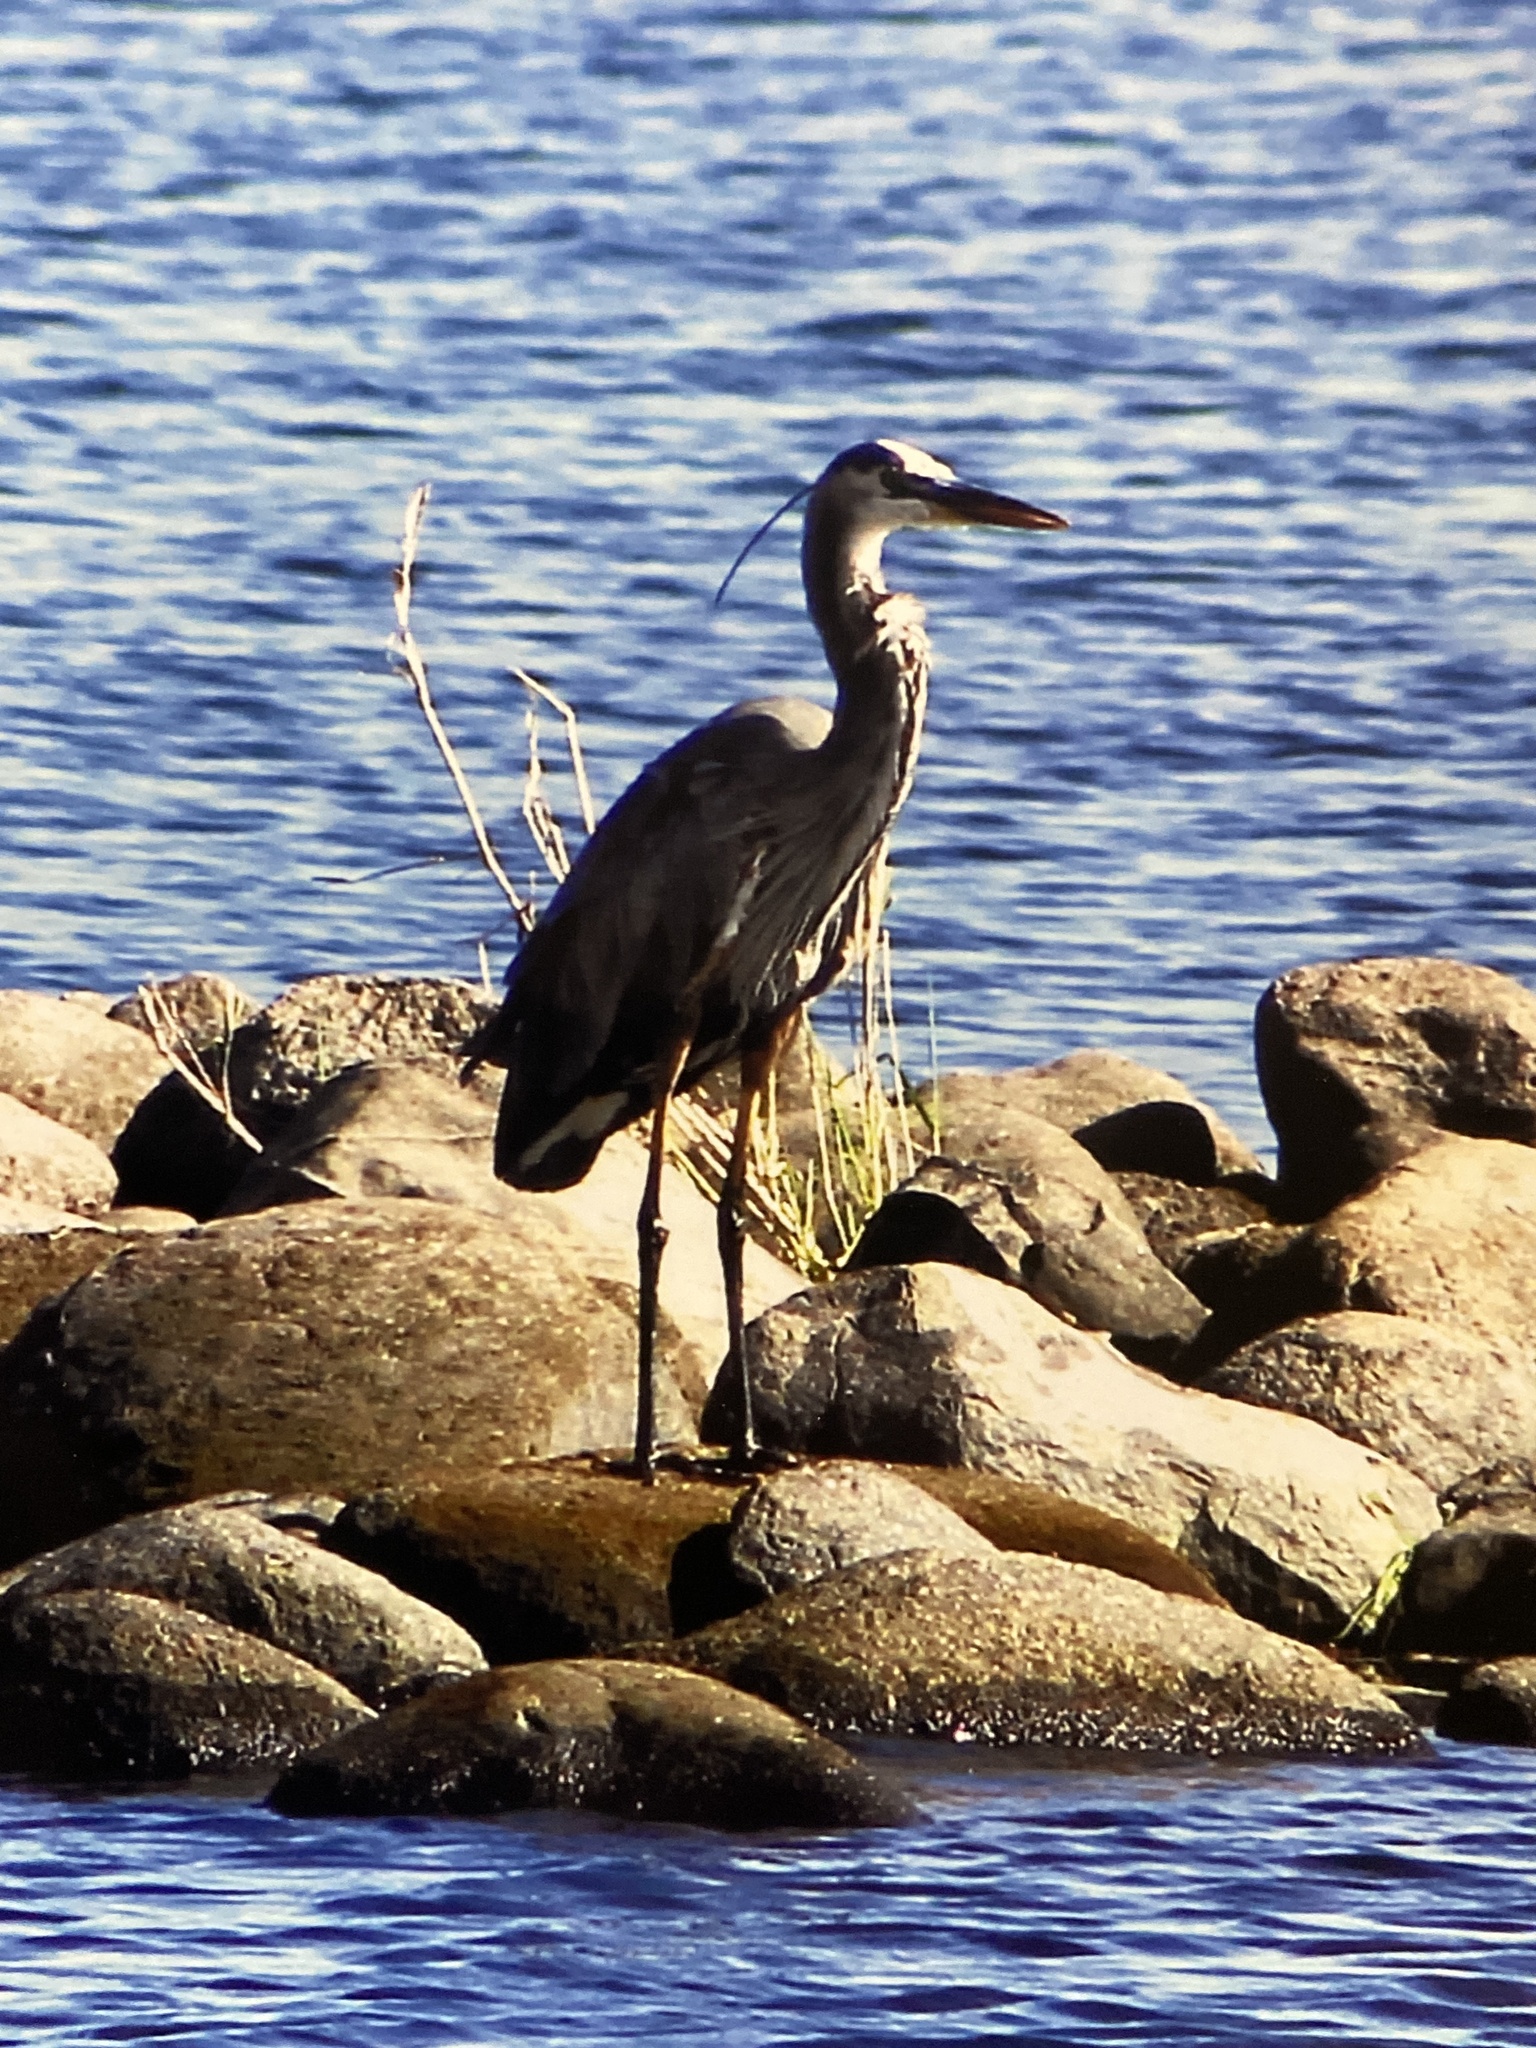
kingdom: Animalia
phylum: Chordata
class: Aves
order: Pelecaniformes
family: Ardeidae
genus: Ardea
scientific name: Ardea herodias
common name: Great blue heron
